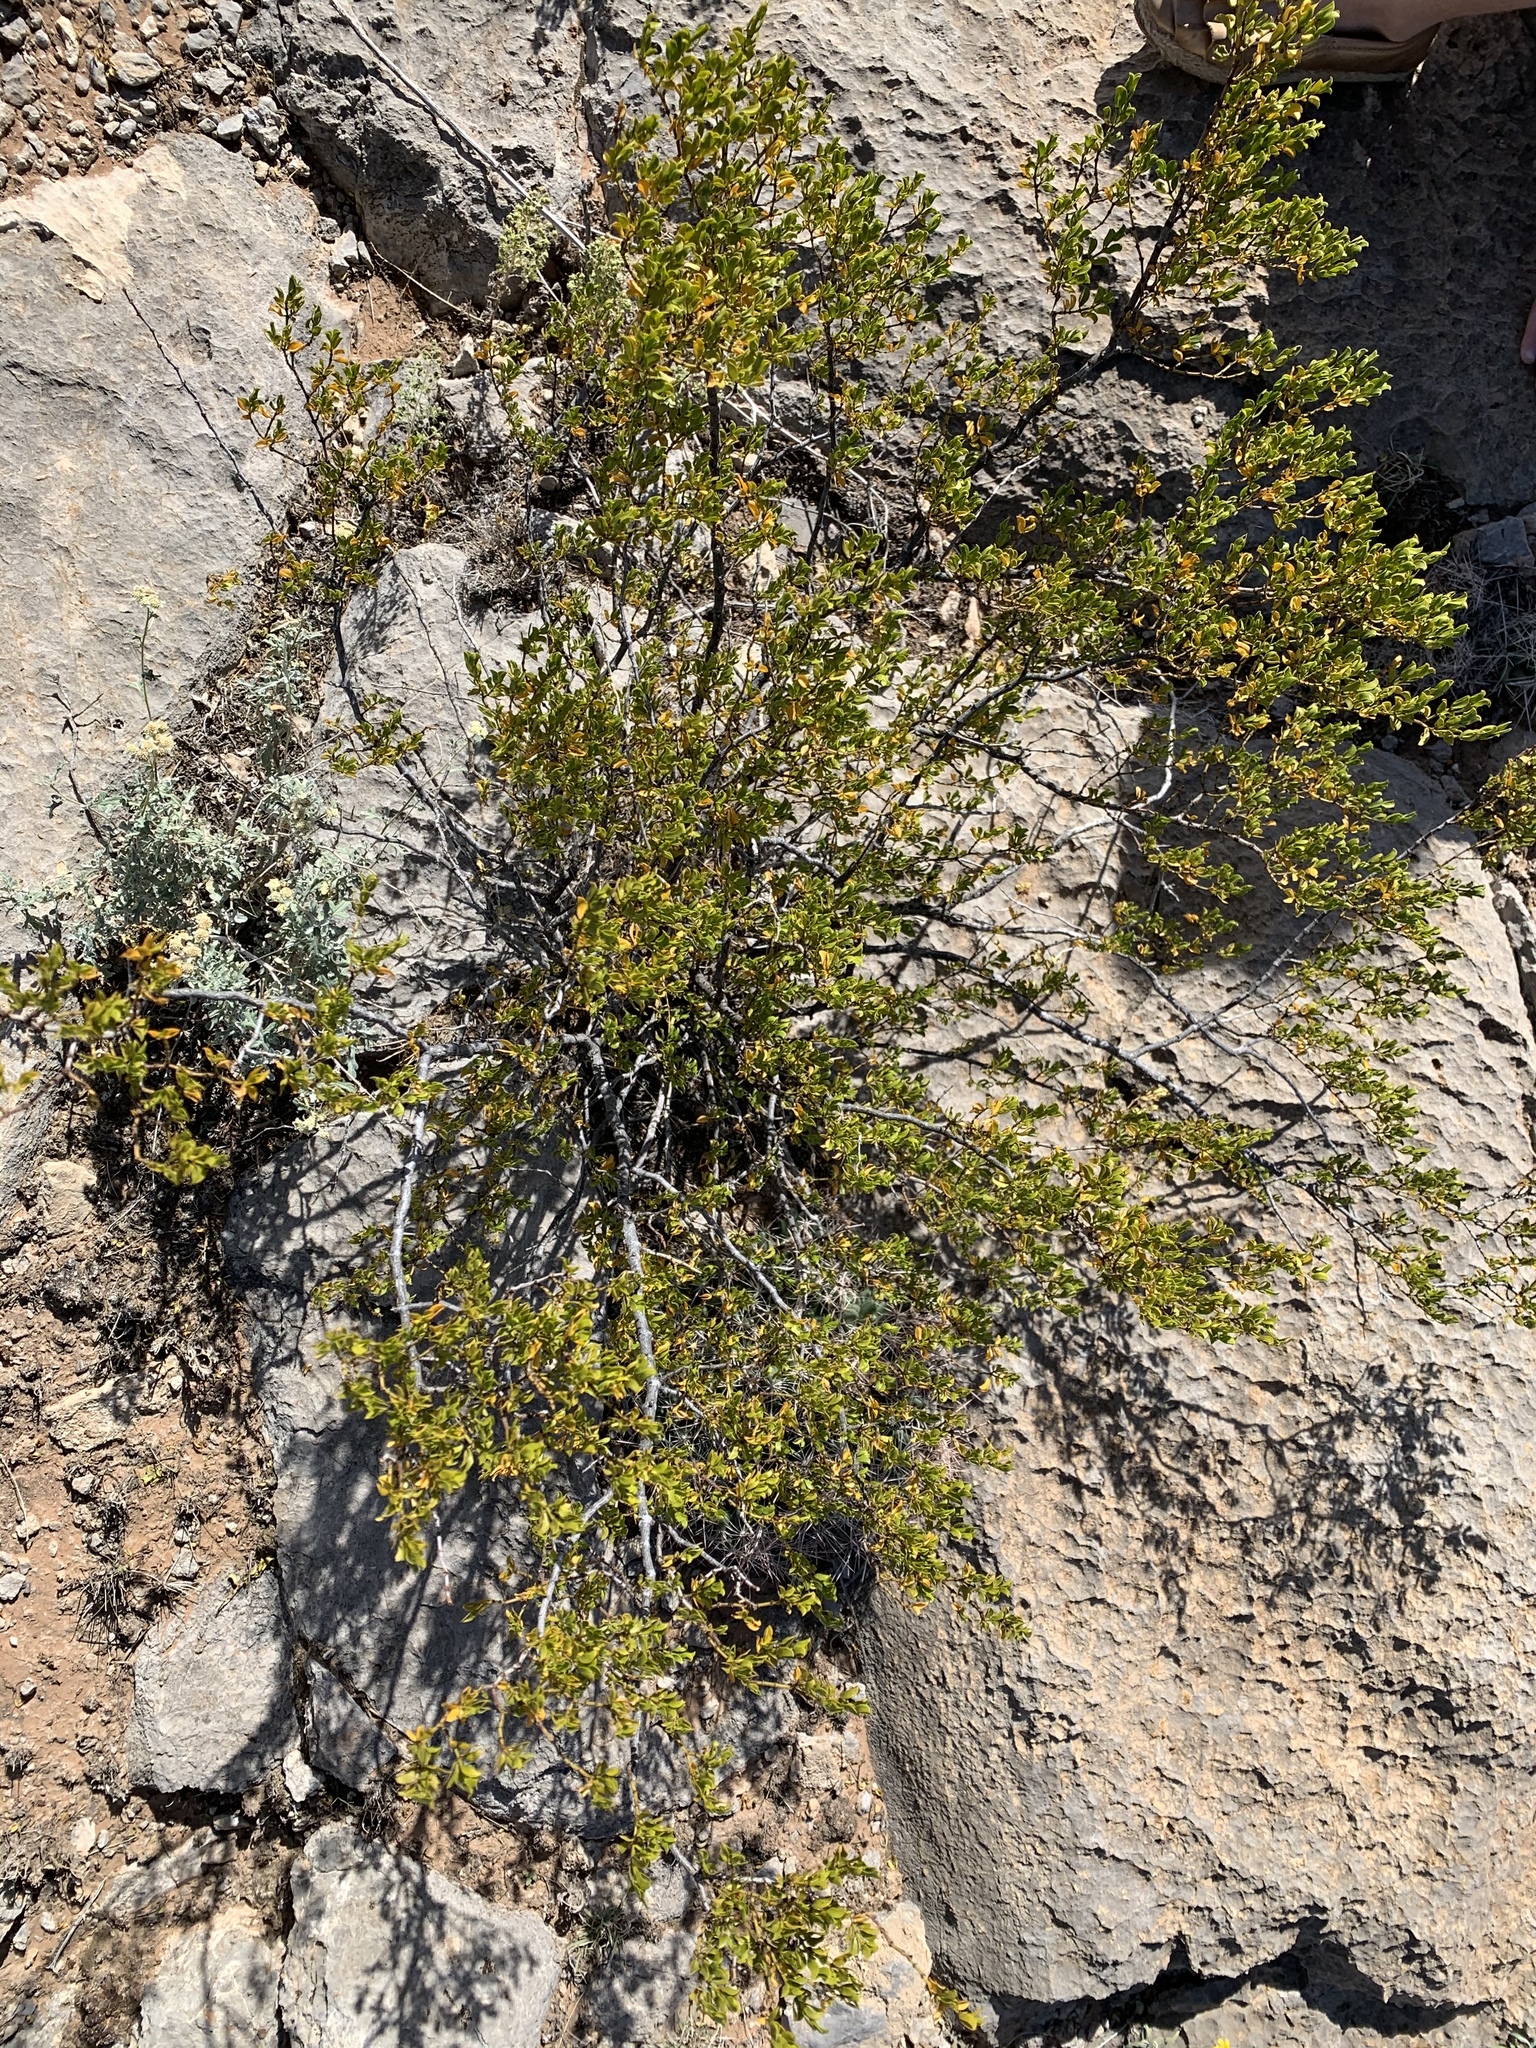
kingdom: Plantae
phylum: Tracheophyta
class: Magnoliopsida
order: Zygophyllales
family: Zygophyllaceae
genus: Larrea
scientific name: Larrea tridentata
